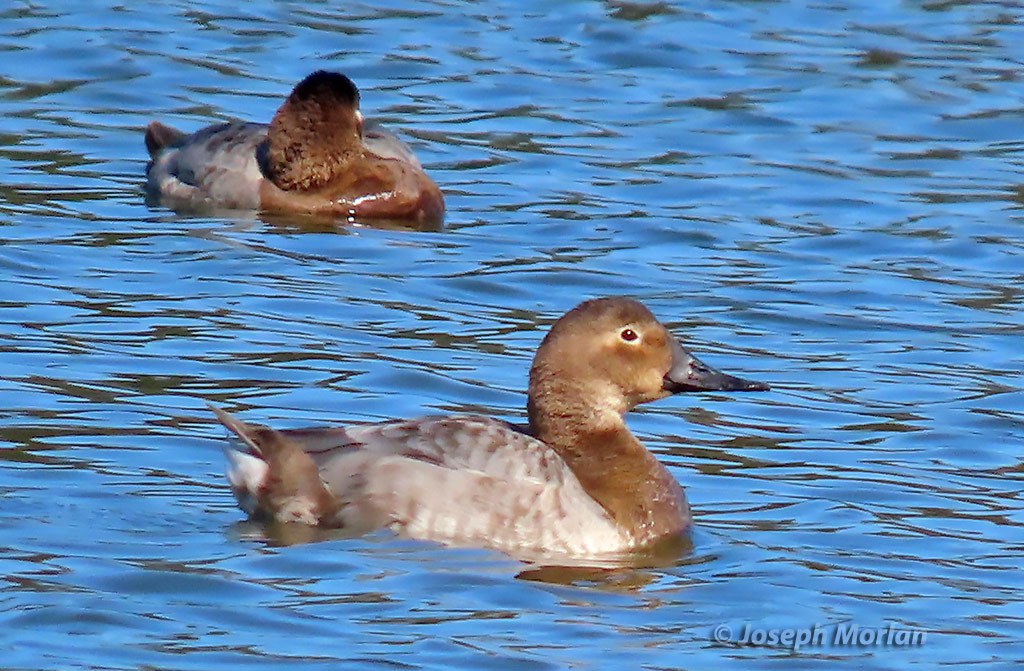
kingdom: Animalia
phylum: Chordata
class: Aves
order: Anseriformes
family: Anatidae
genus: Aythya
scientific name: Aythya valisineria
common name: Canvasback
